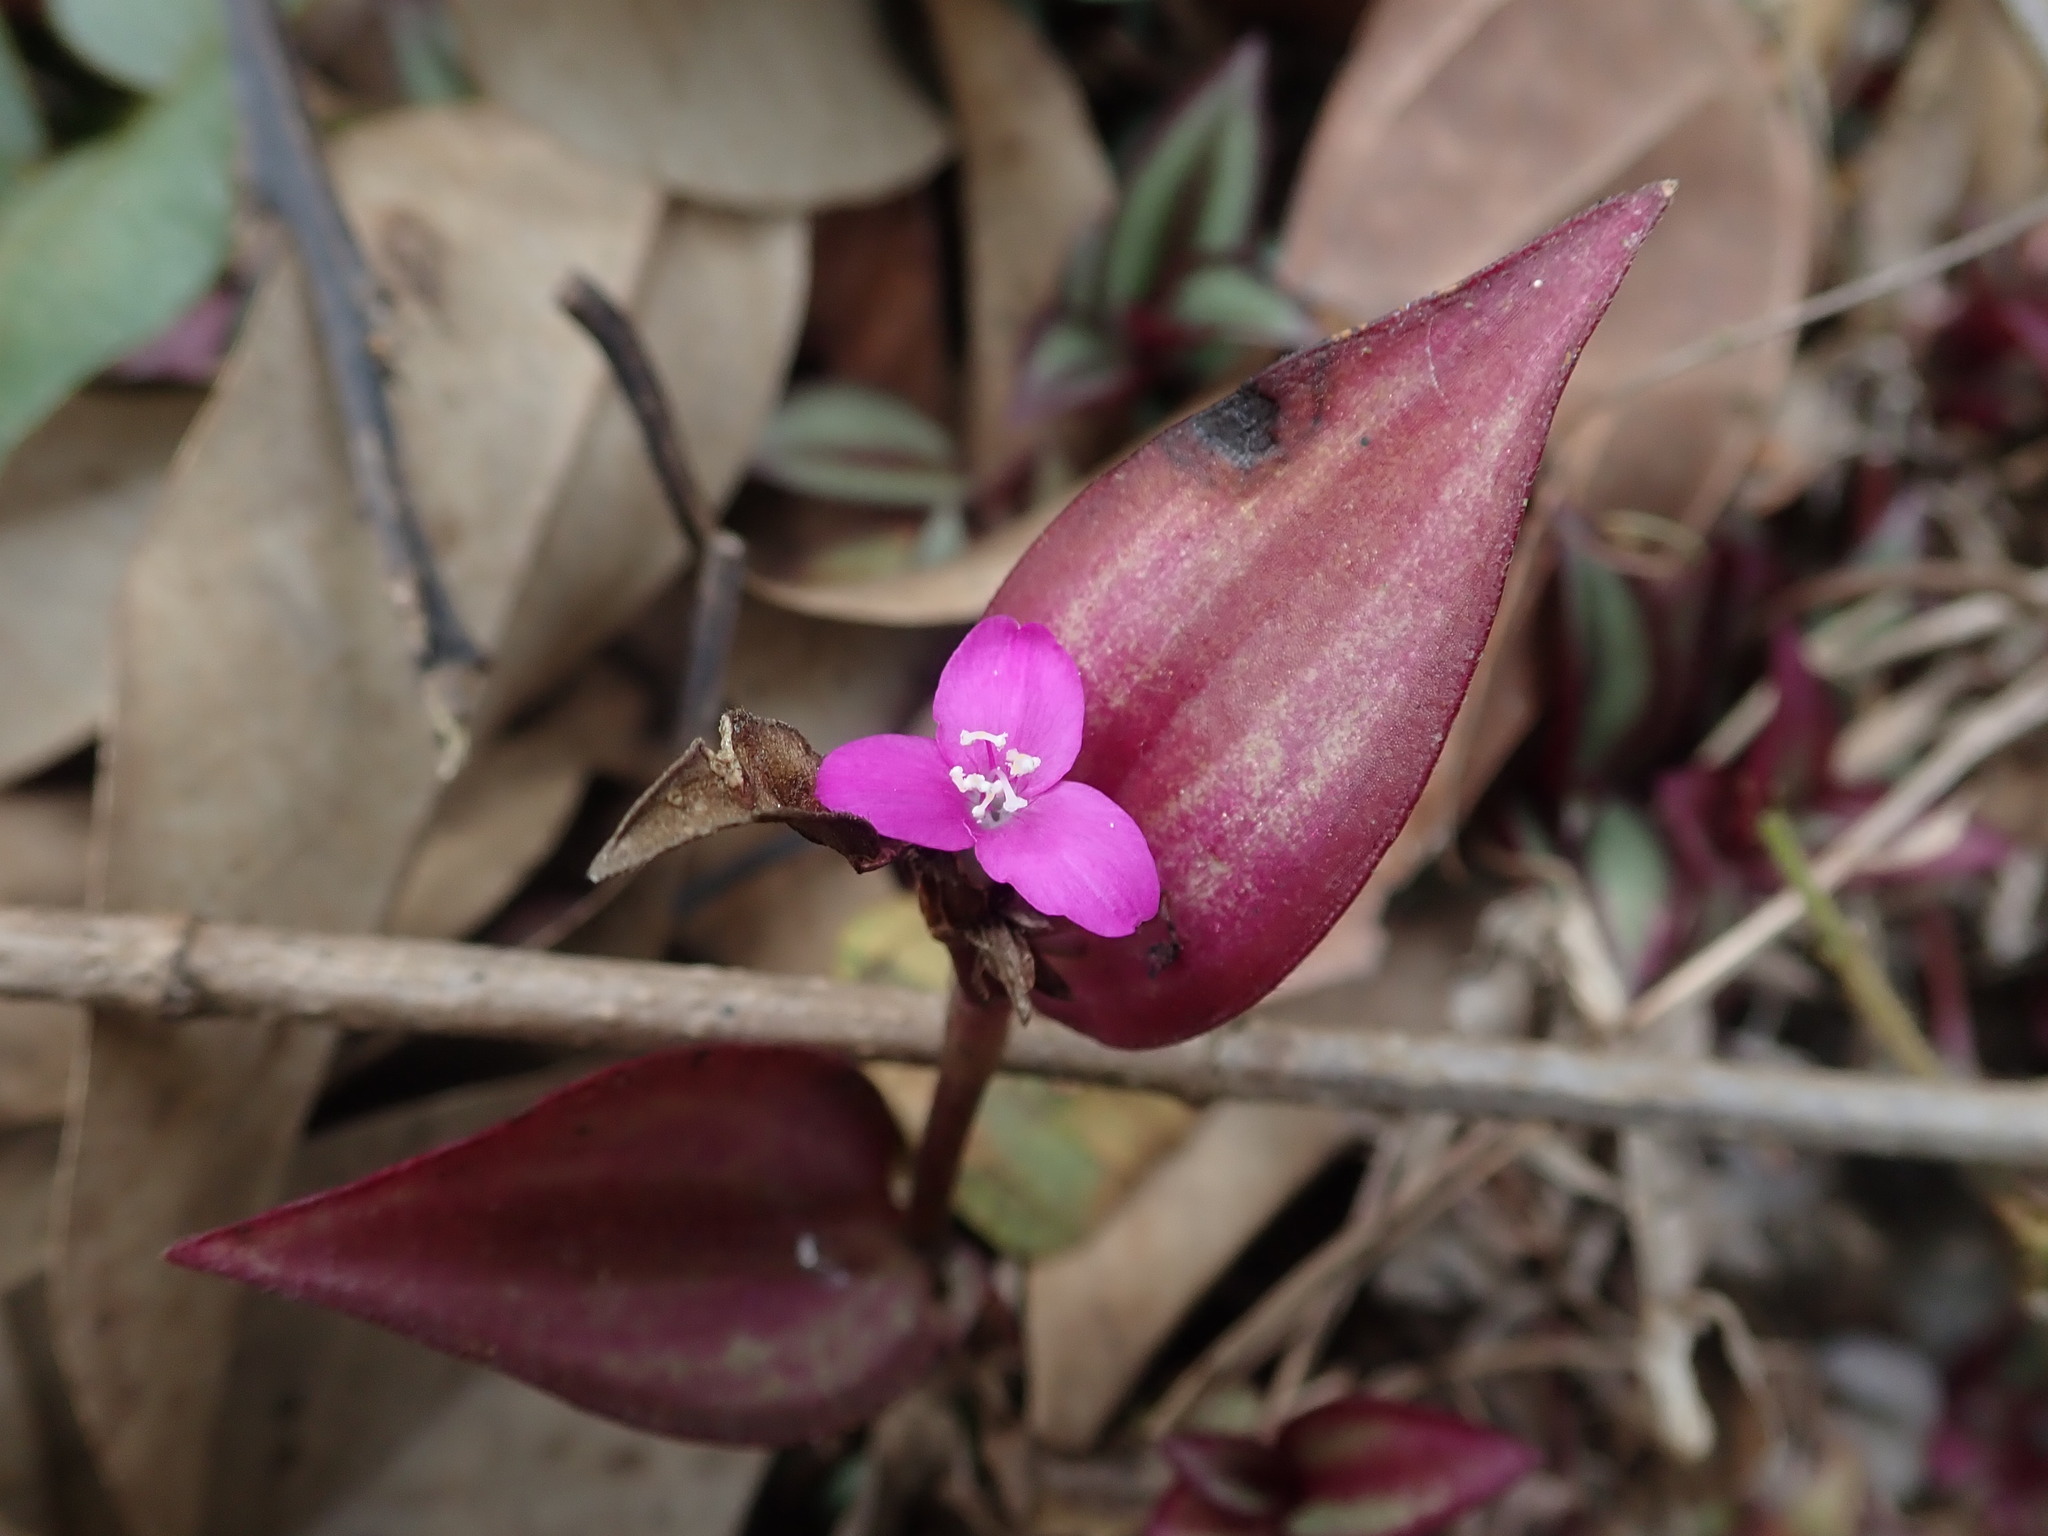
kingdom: Plantae
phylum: Tracheophyta
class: Liliopsida
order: Commelinales
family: Commelinaceae
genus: Tradescantia
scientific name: Tradescantia zebrina
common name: Inchplant
